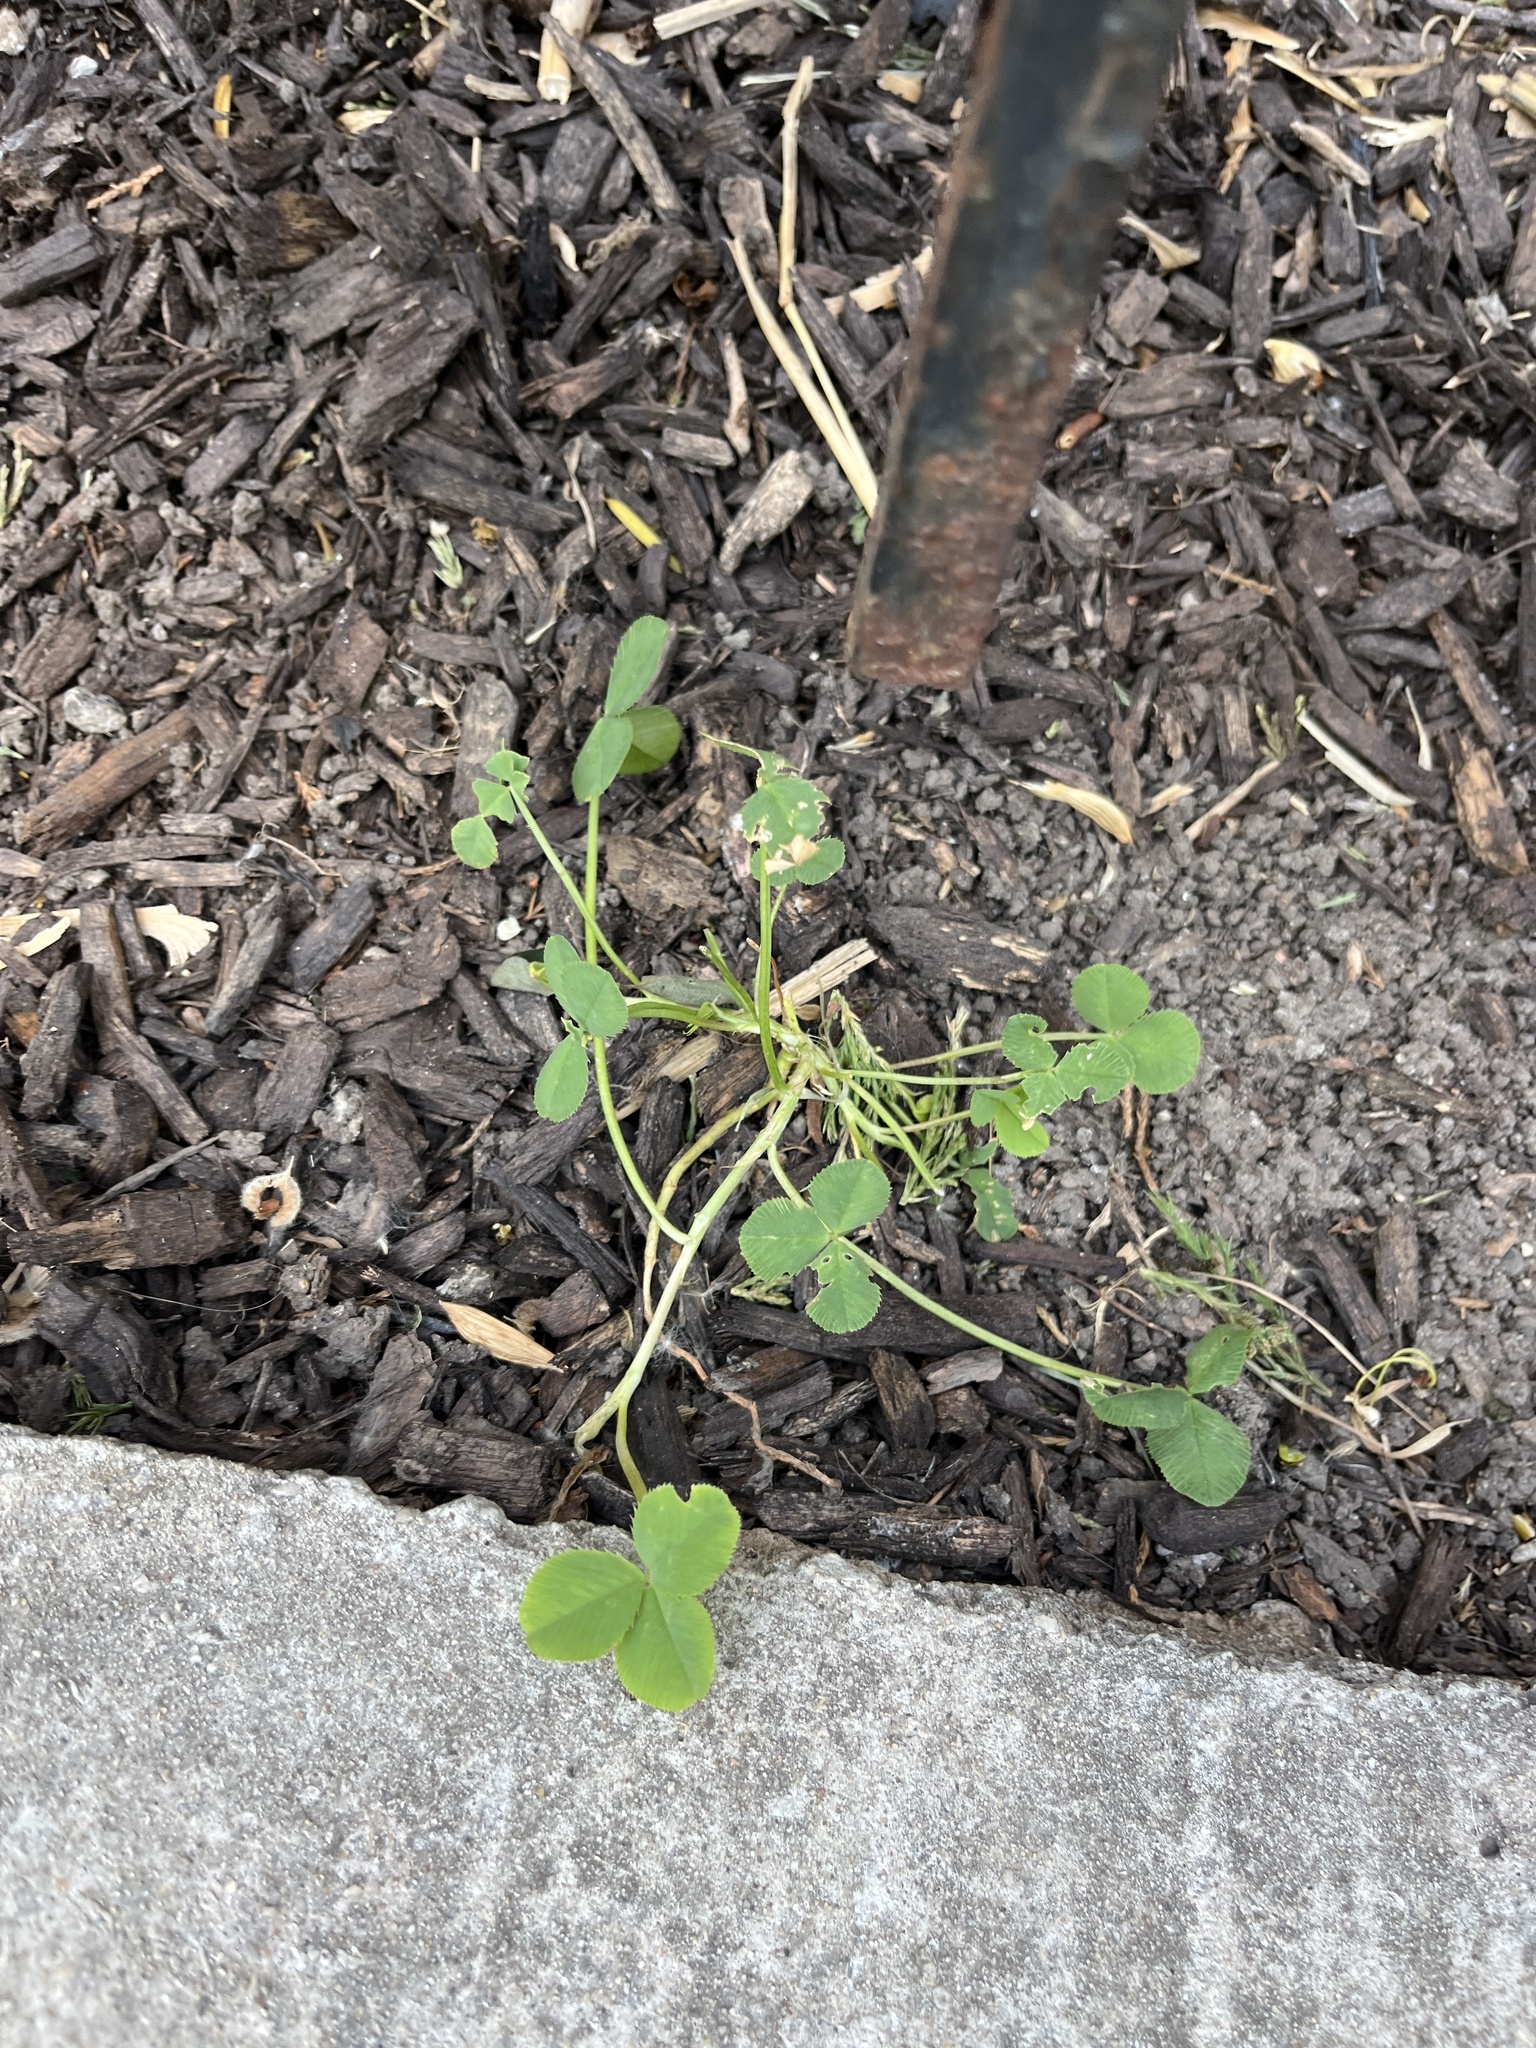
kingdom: Plantae
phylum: Tracheophyta
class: Magnoliopsida
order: Fabales
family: Fabaceae
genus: Trifolium
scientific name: Trifolium repens
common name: White clover
